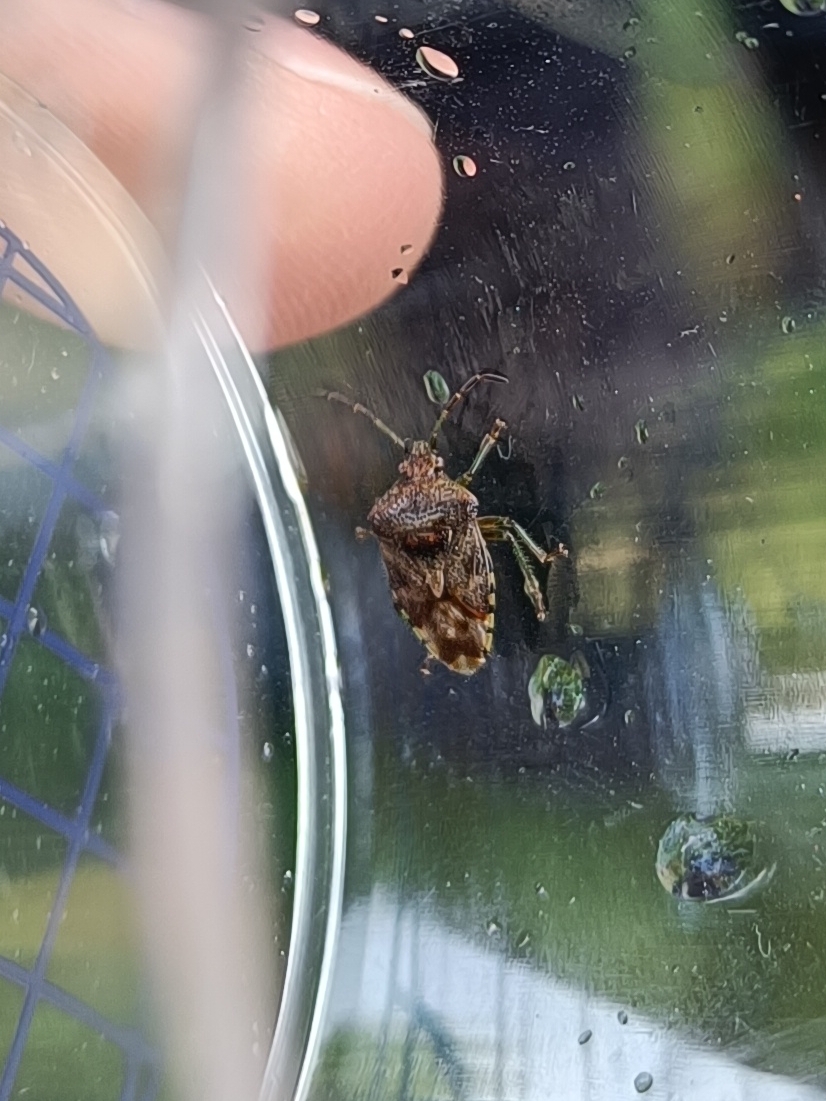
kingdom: Animalia
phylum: Arthropoda
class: Insecta
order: Hemiptera
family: Acanthosomatidae
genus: Elasmucha
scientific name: Elasmucha grisea
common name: Parent bug
